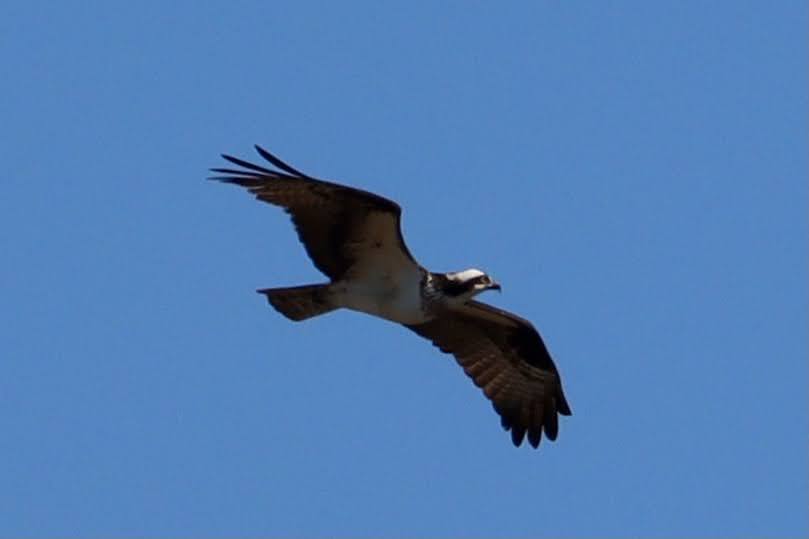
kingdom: Animalia
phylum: Chordata
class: Aves
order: Accipitriformes
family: Pandionidae
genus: Pandion
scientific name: Pandion haliaetus
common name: Osprey
